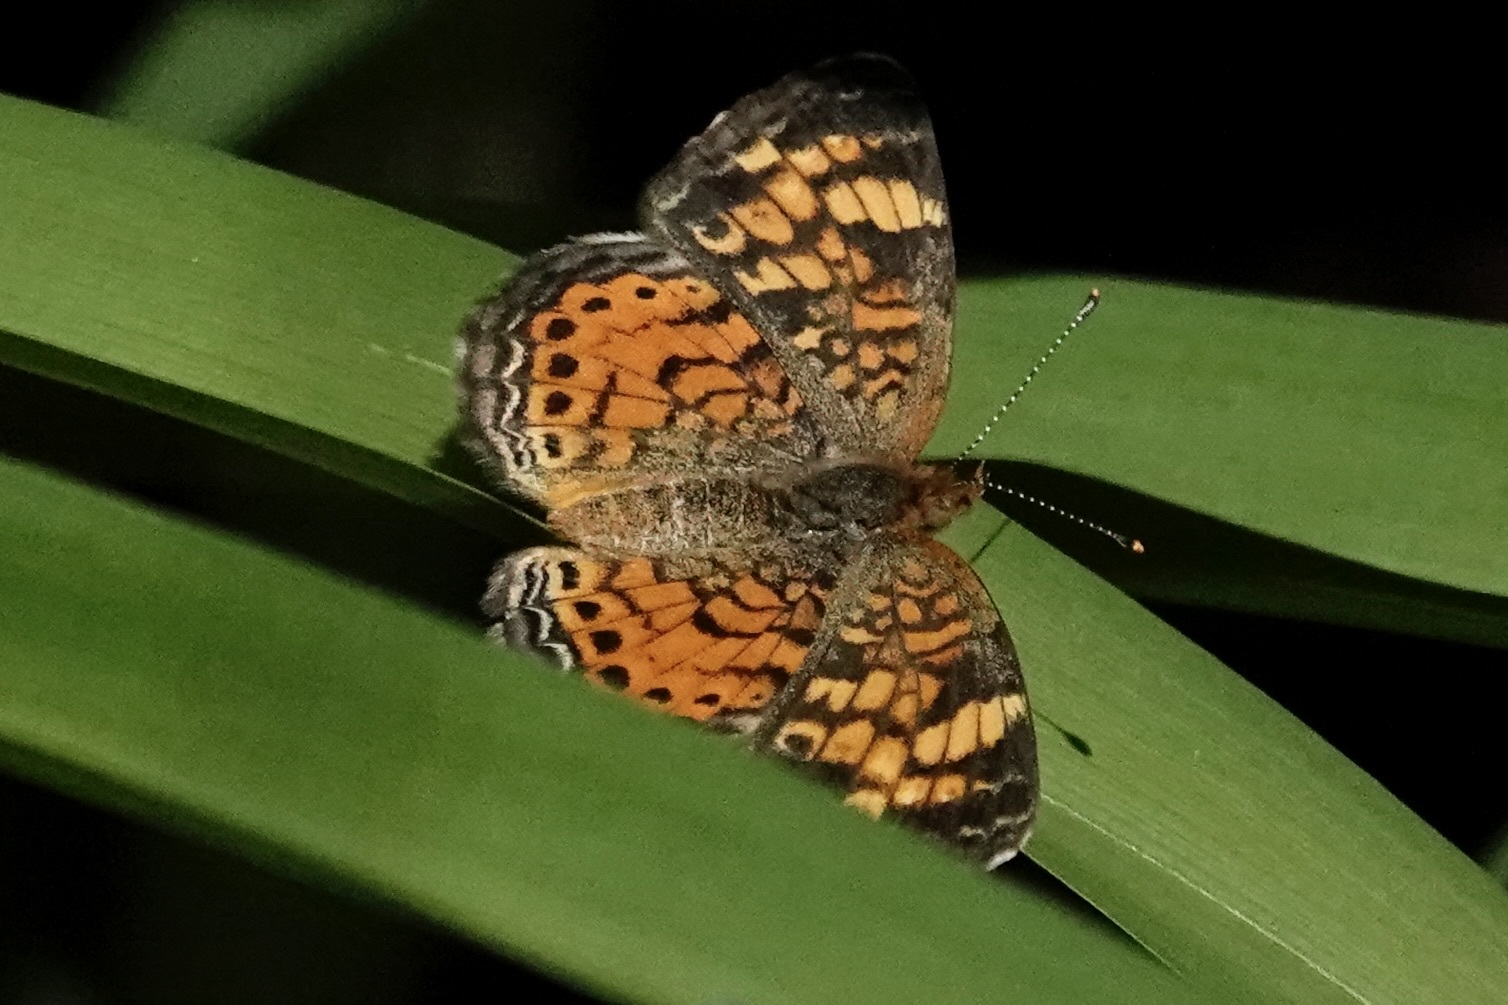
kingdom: Animalia
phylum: Arthropoda
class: Insecta
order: Lepidoptera
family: Nymphalidae
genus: Phyciodes
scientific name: Phyciodes tharos
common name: Pearl crescent
